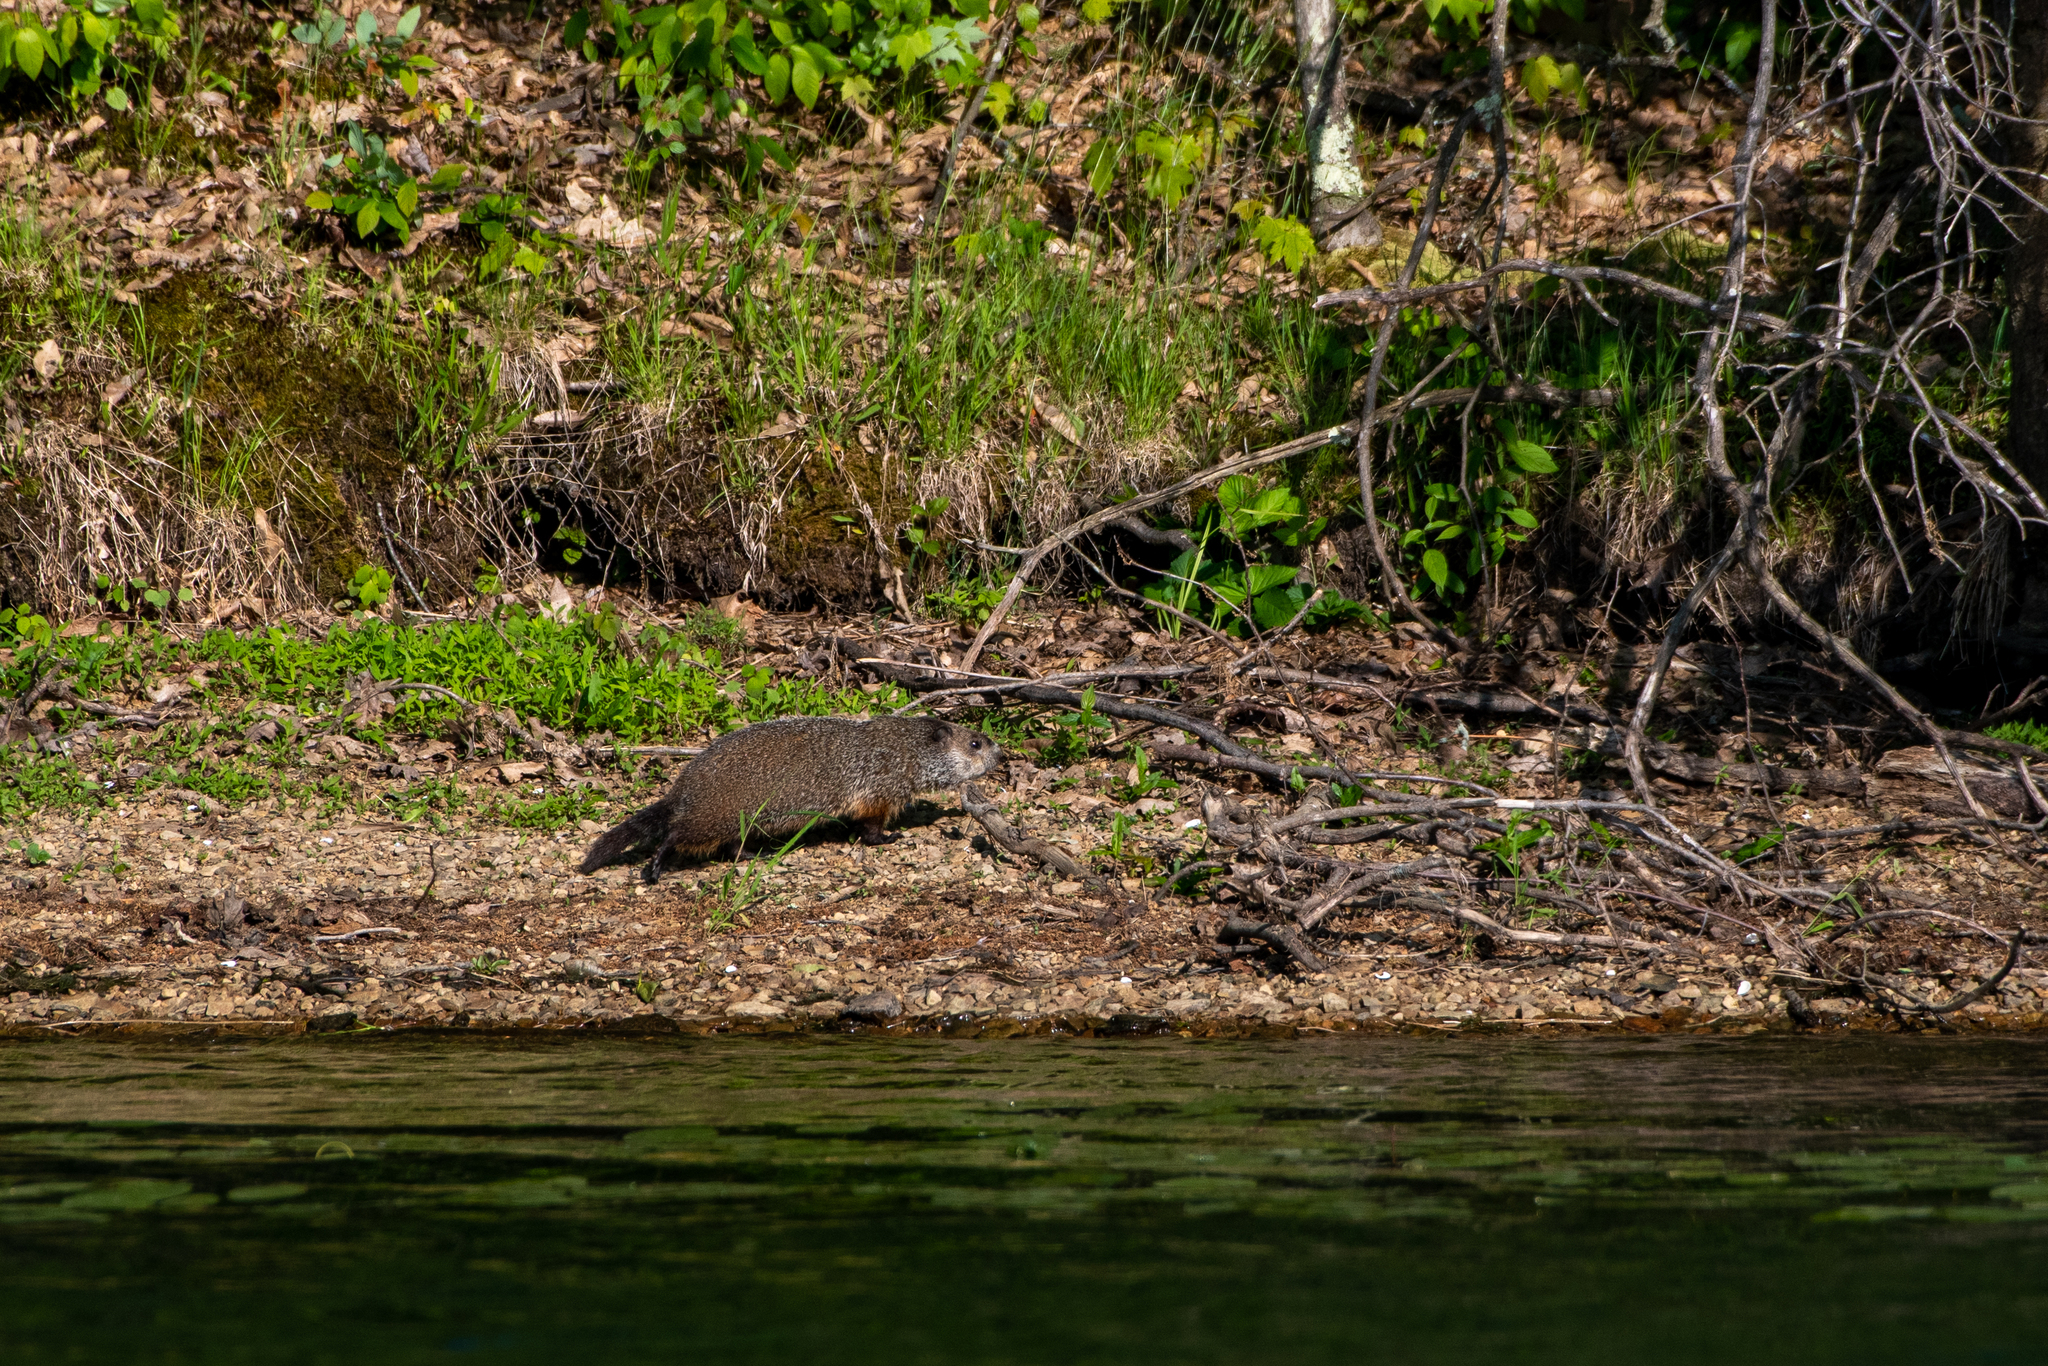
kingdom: Animalia
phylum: Chordata
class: Mammalia
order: Rodentia
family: Sciuridae
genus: Marmota
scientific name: Marmota monax
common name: Groundhog
